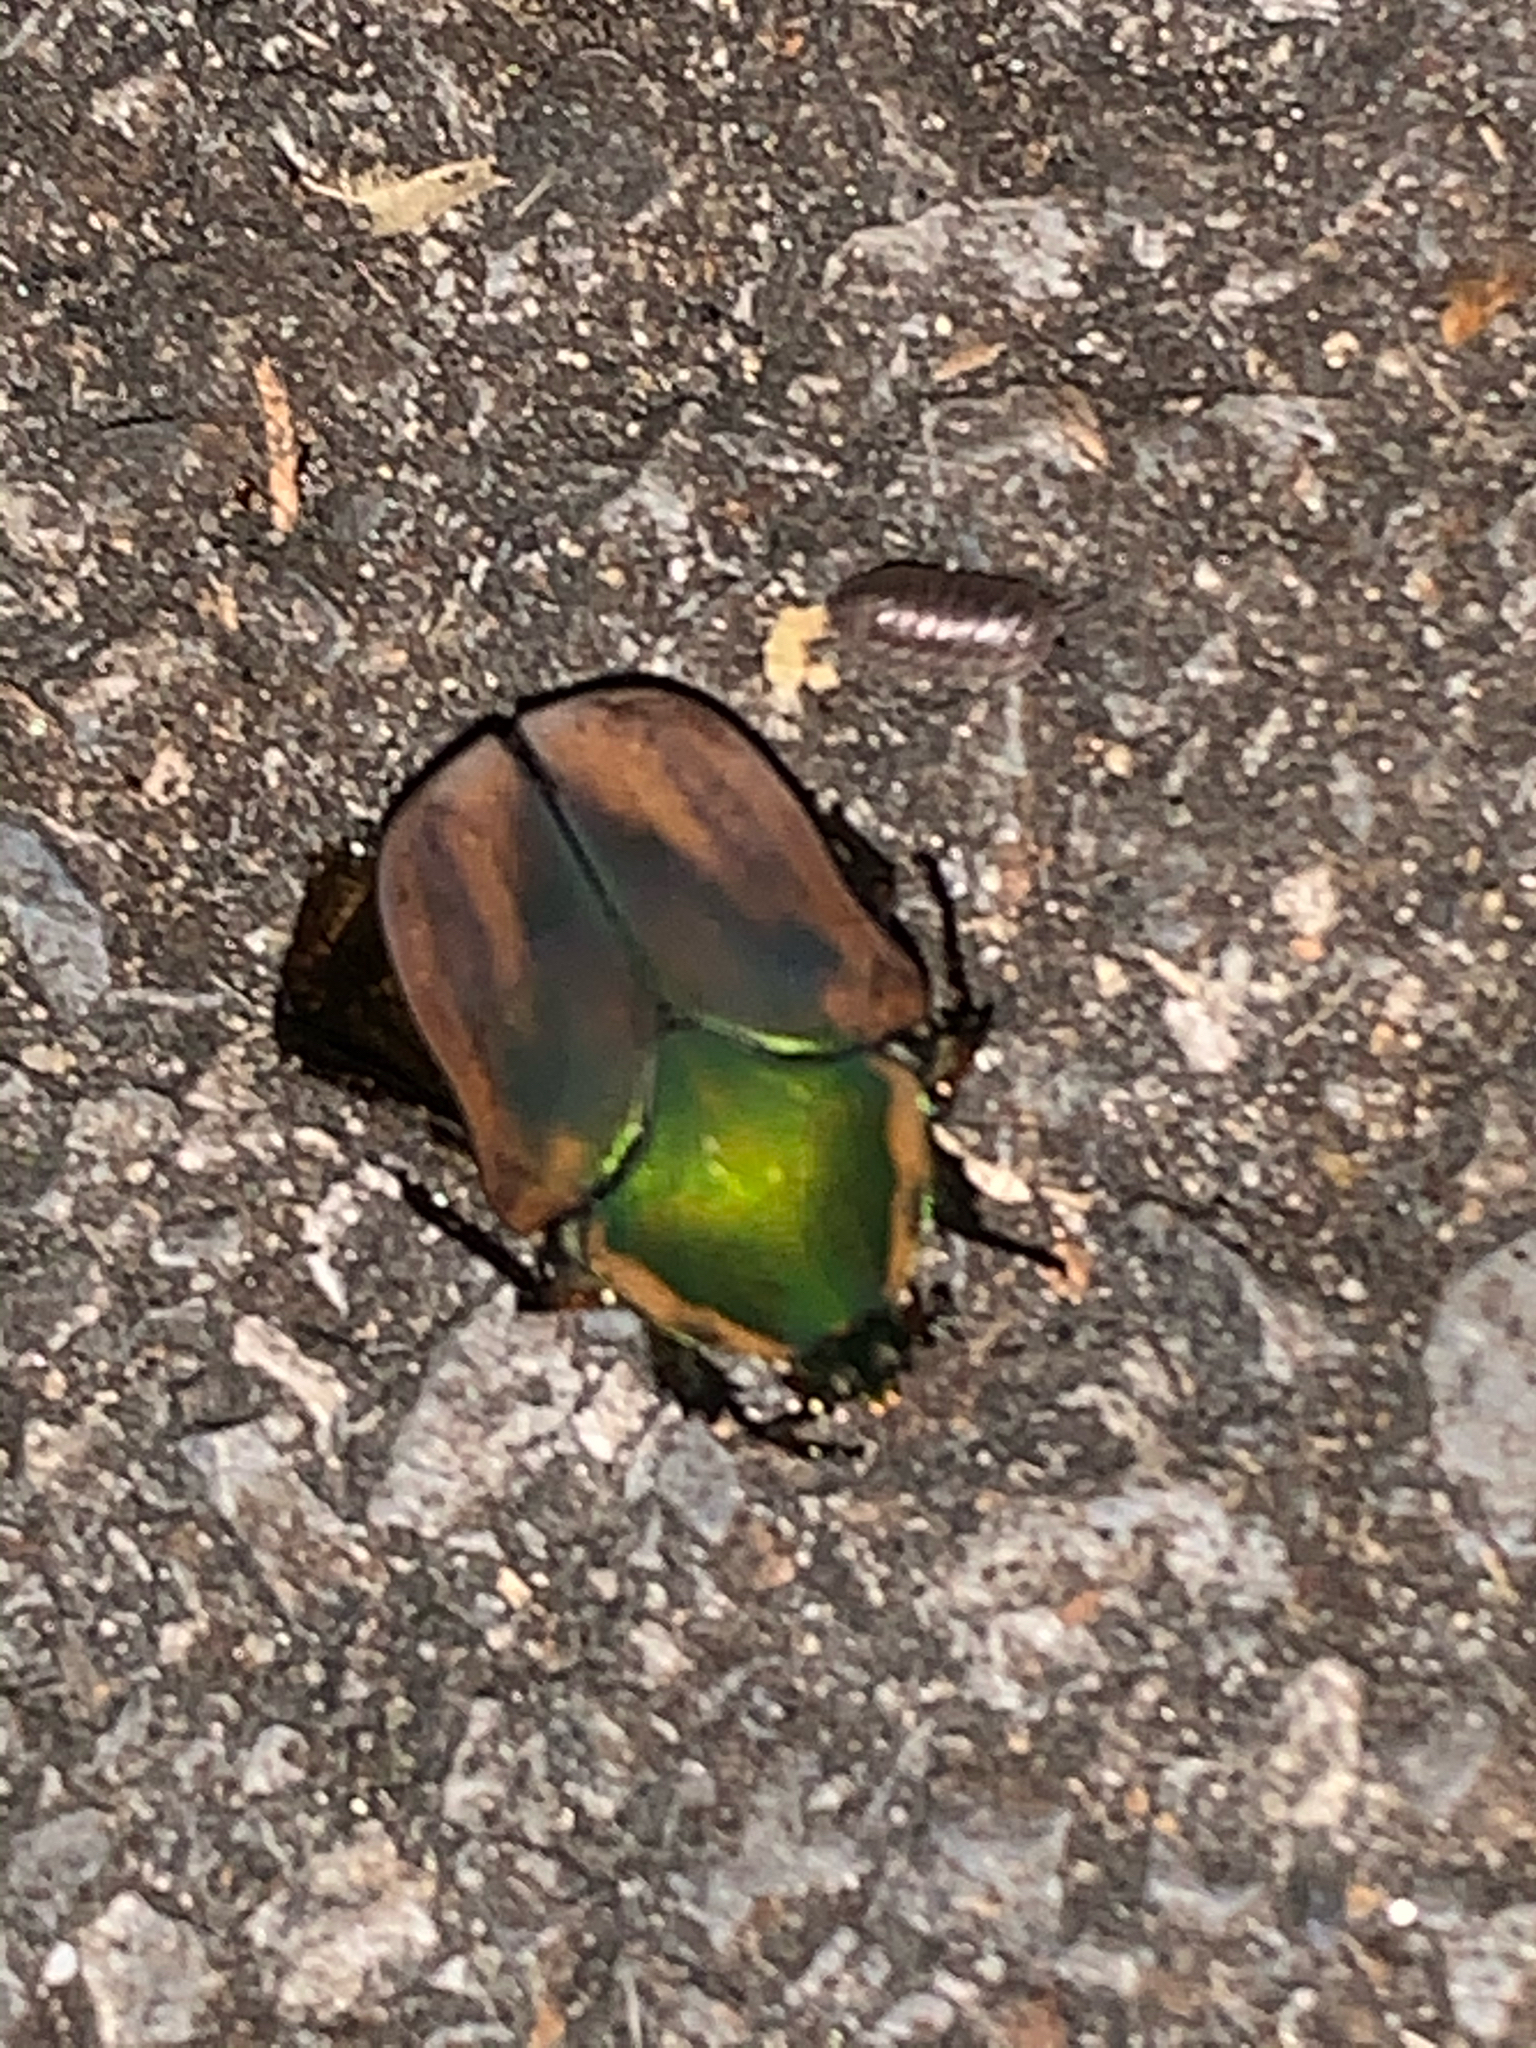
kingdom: Animalia
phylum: Arthropoda
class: Insecta
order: Coleoptera
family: Scarabaeidae
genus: Cotinis
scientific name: Cotinis nitida
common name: Common green june beetle
